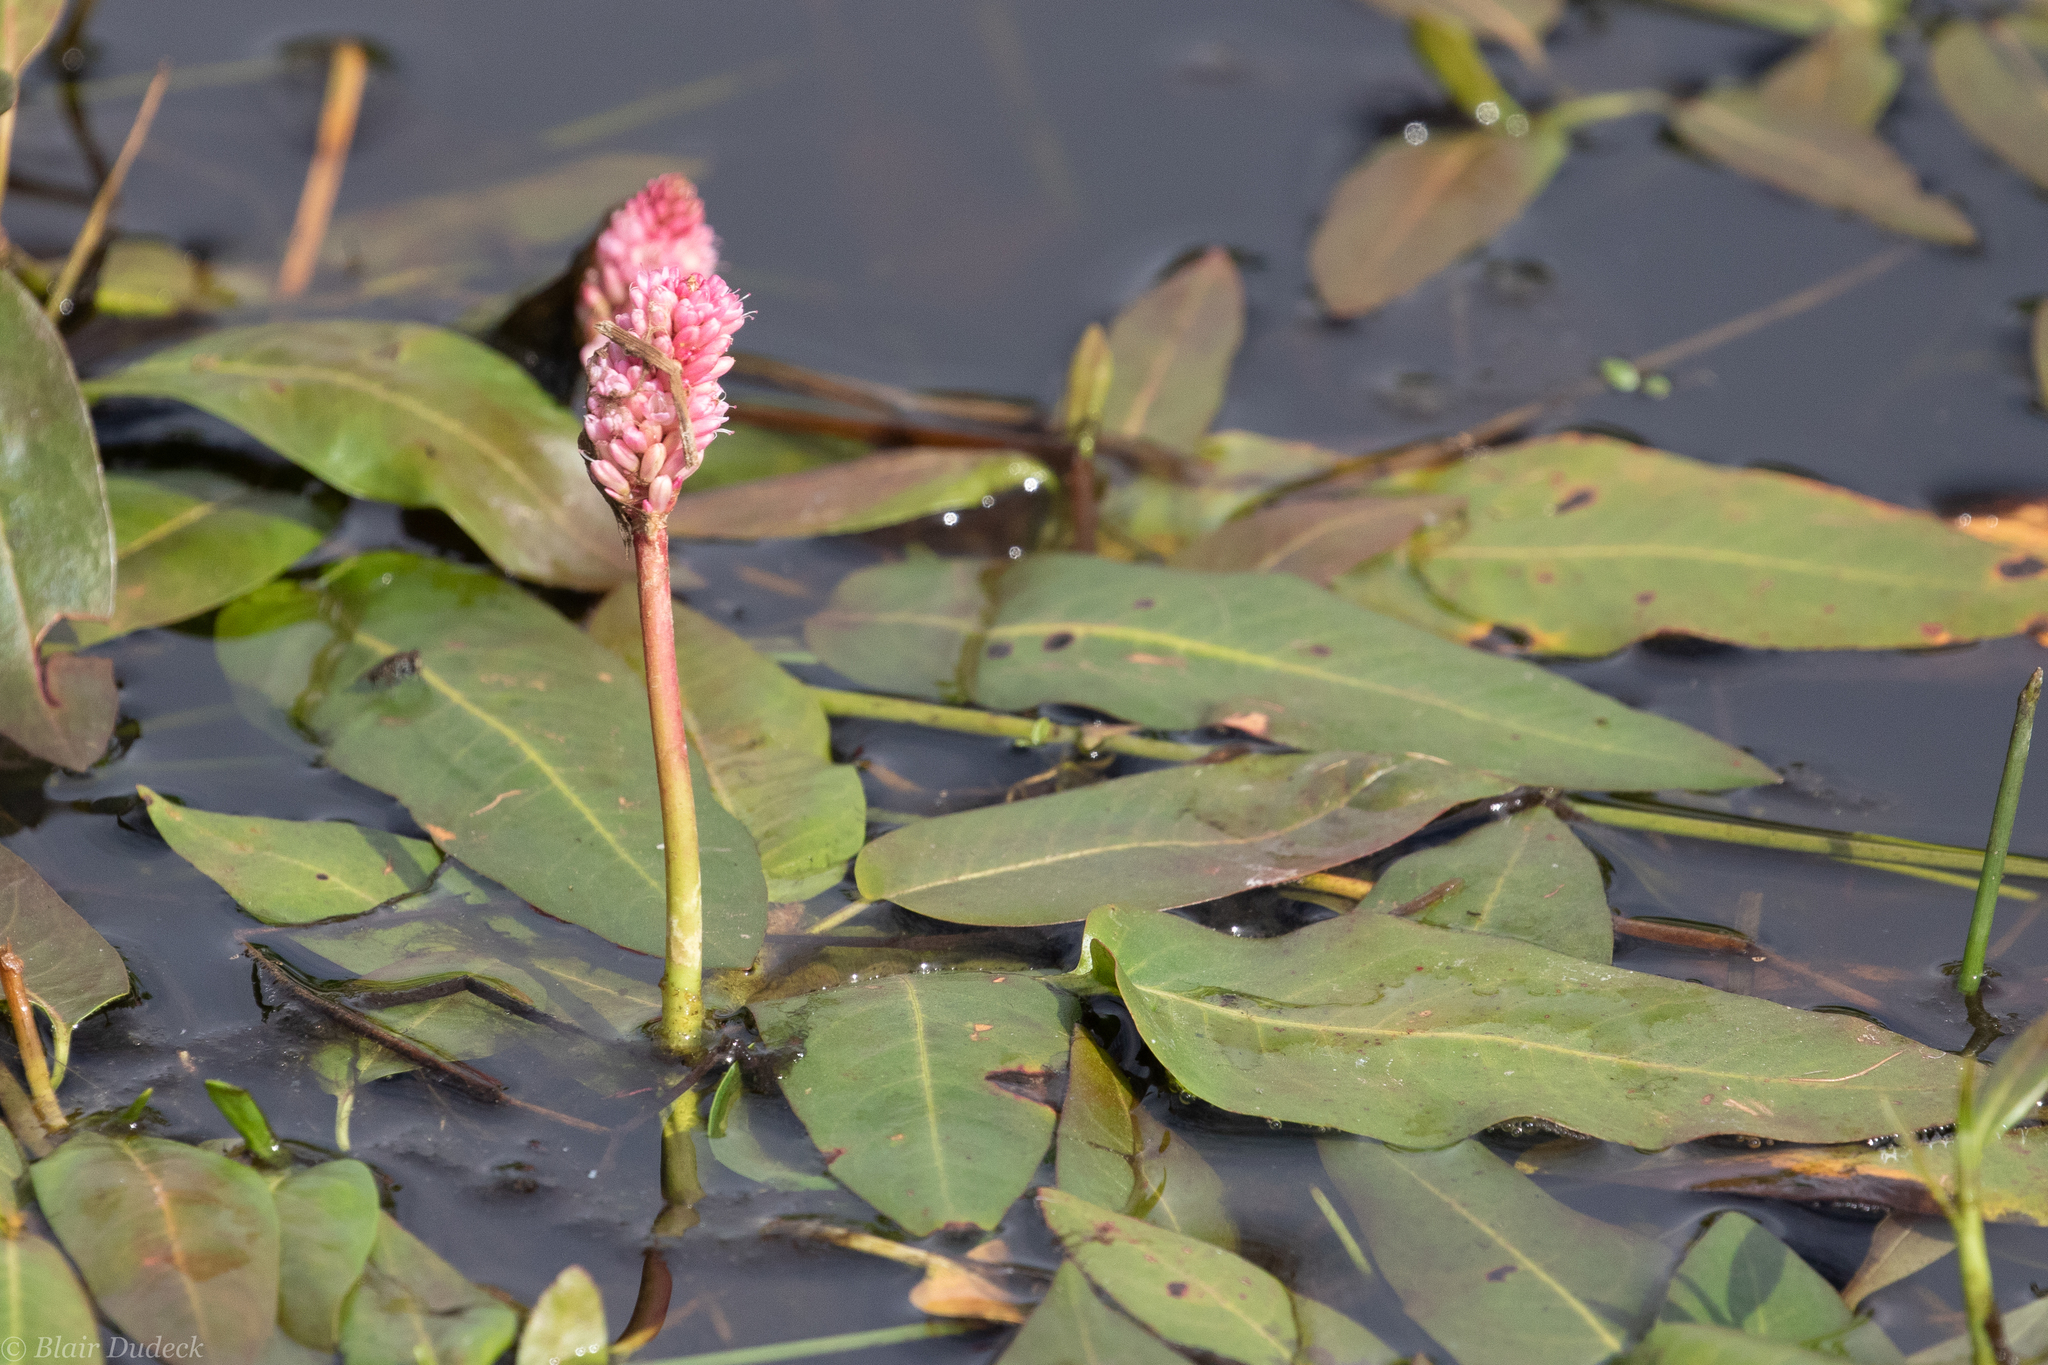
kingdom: Plantae
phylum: Tracheophyta
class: Magnoliopsida
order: Caryophyllales
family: Polygonaceae
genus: Persicaria
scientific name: Persicaria amphibia
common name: Amphibious bistort
